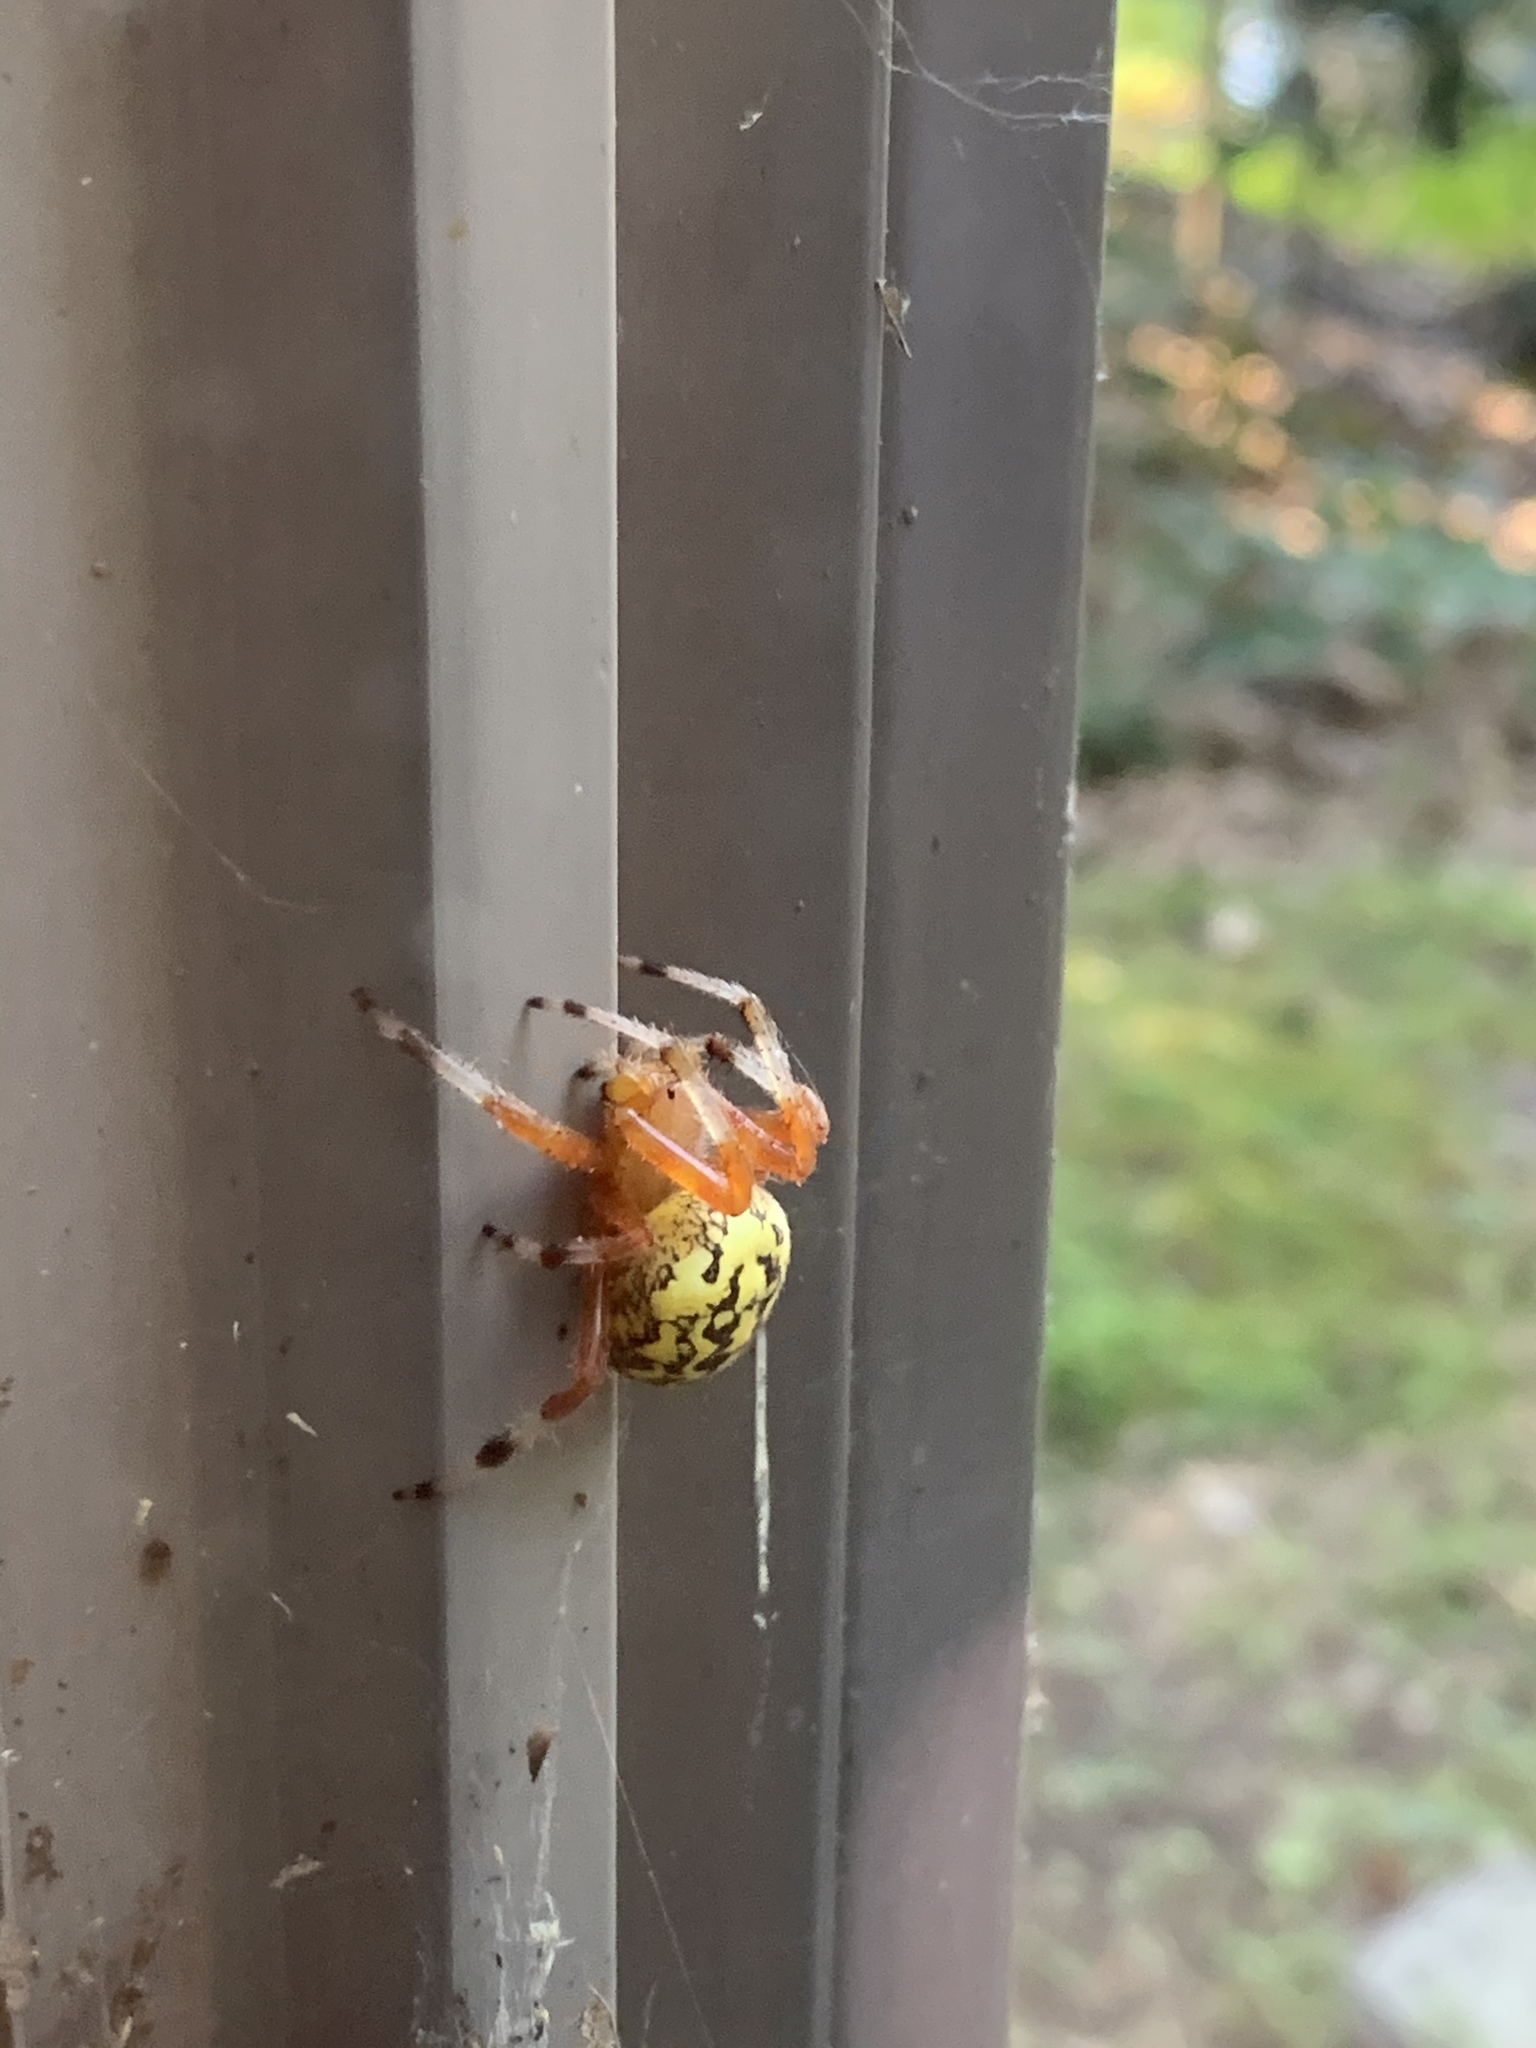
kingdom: Animalia
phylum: Arthropoda
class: Arachnida
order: Araneae
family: Araneidae
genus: Araneus
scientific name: Araneus marmoreus
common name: Marbled orbweaver
